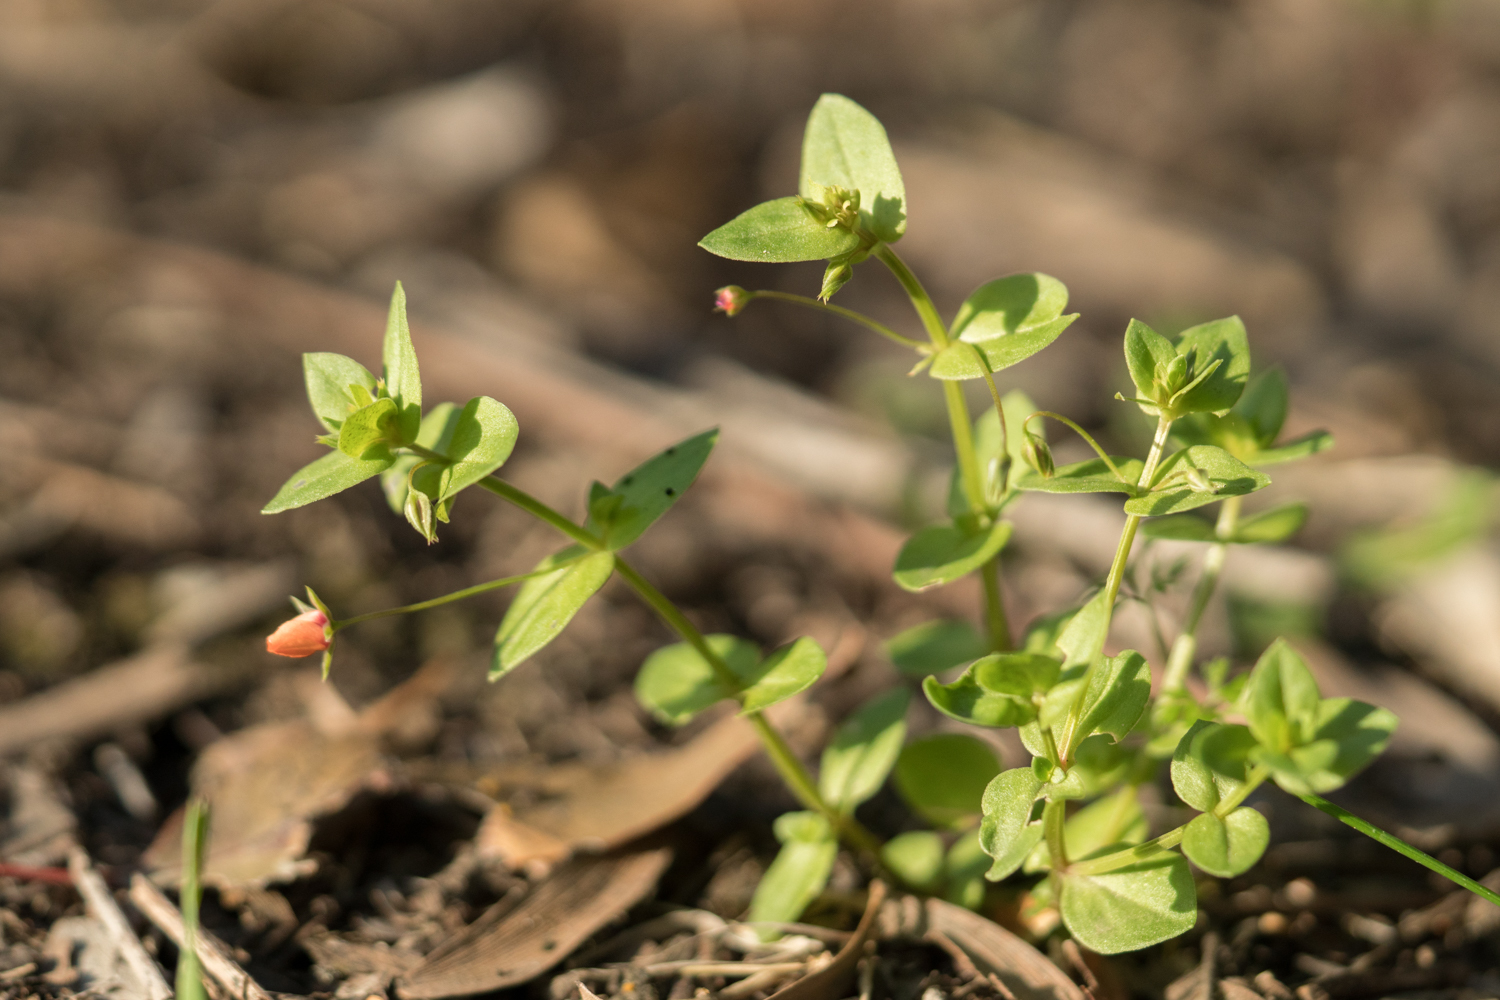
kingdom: Plantae
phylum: Tracheophyta
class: Magnoliopsida
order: Ericales
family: Primulaceae
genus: Lysimachia
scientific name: Lysimachia arvensis
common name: Scarlet pimpernel
